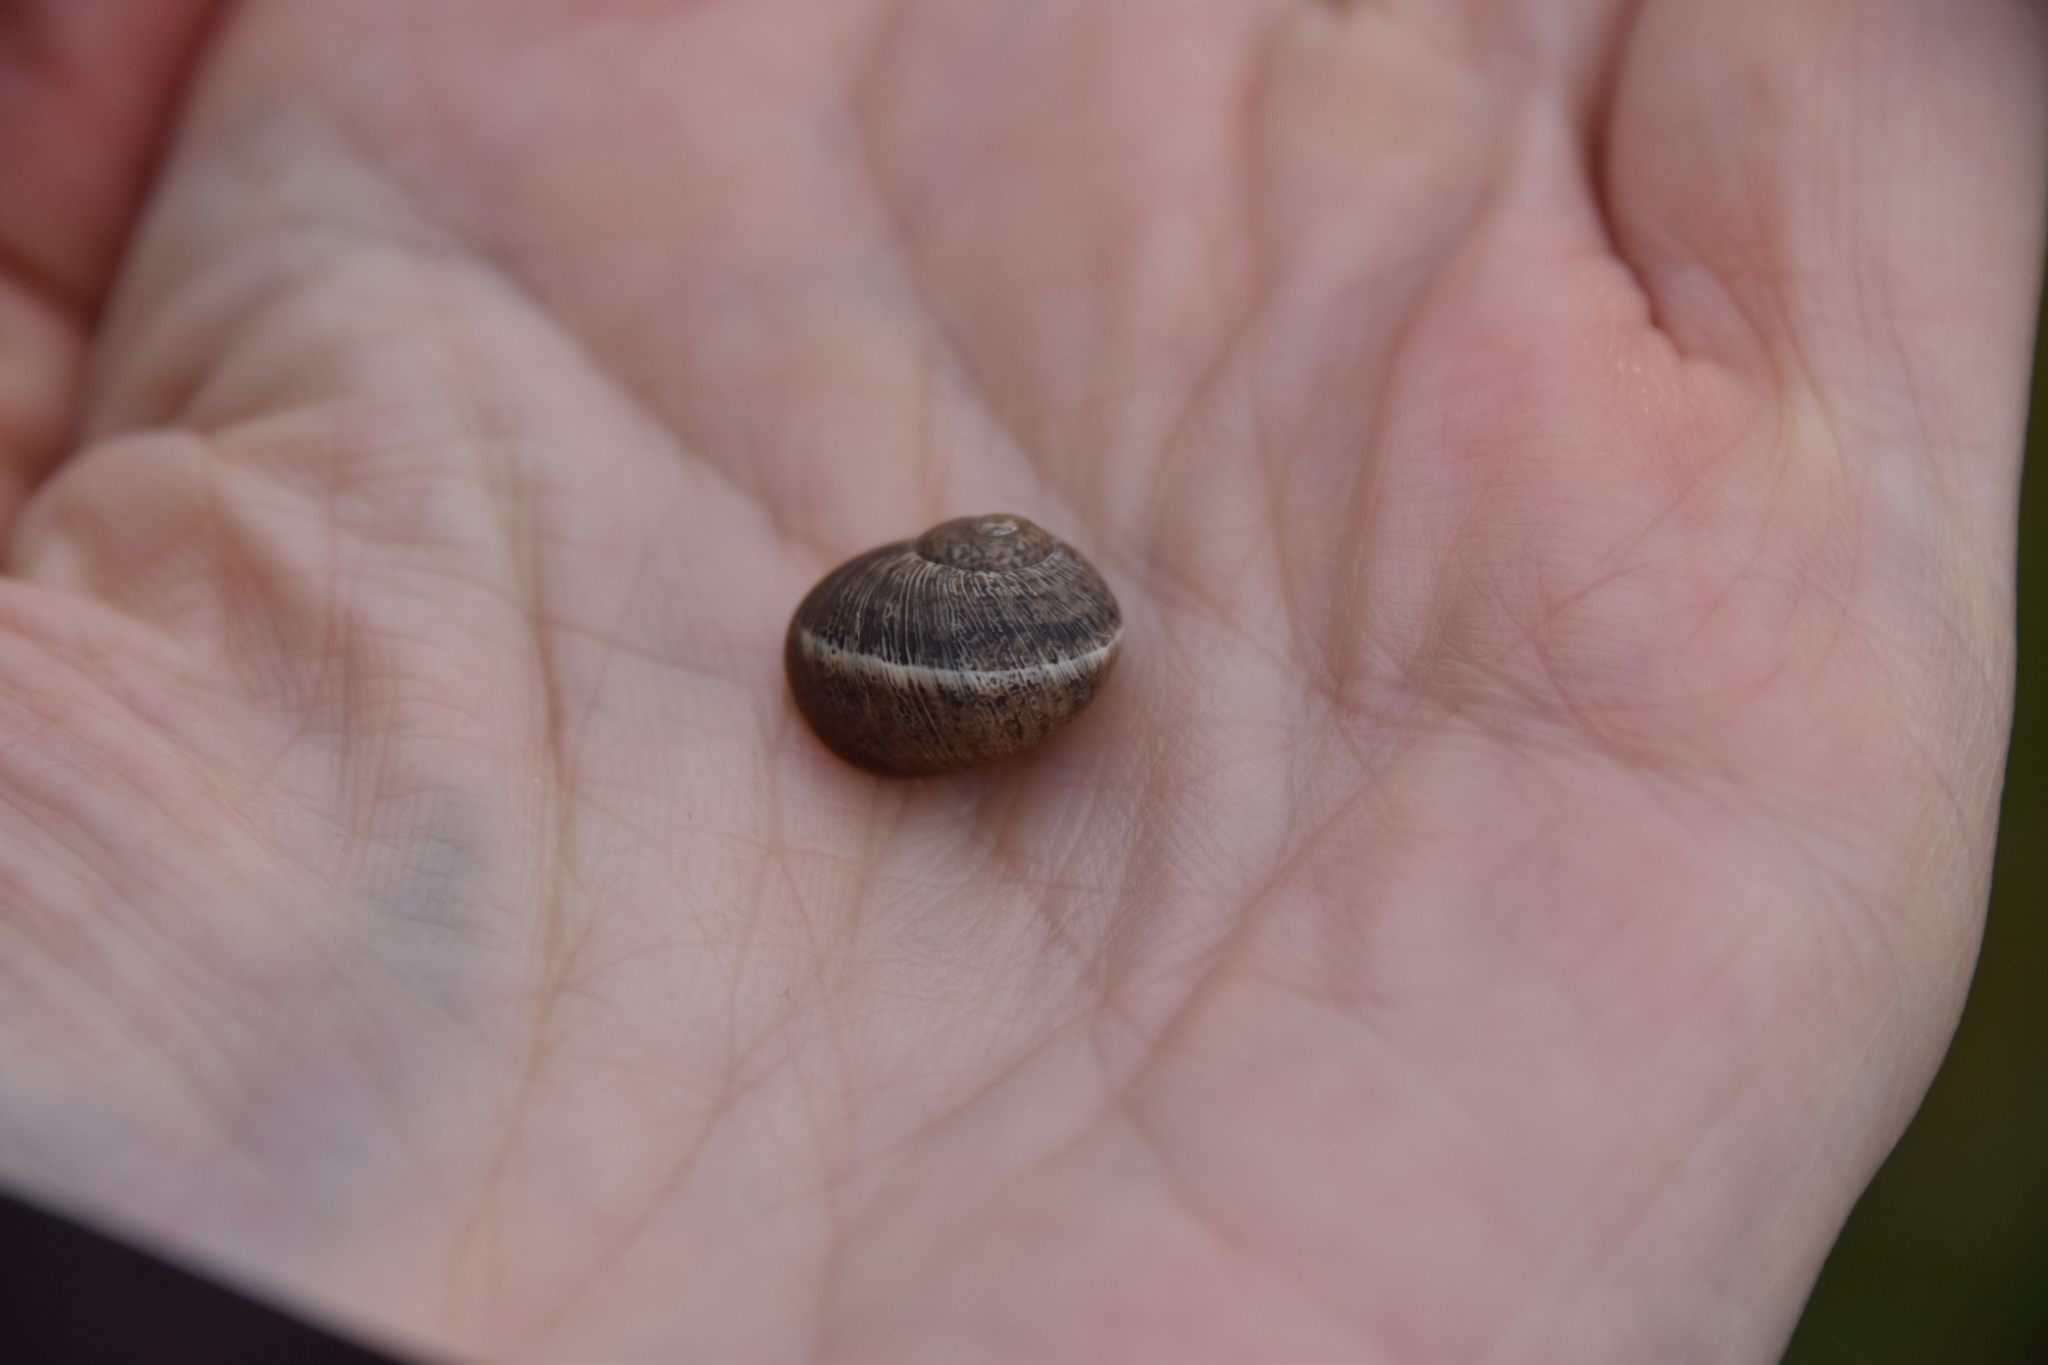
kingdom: Animalia
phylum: Mollusca
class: Gastropoda
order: Stylommatophora
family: Helicidae
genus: Cornu
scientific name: Cornu aspersum
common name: Brown garden snail
